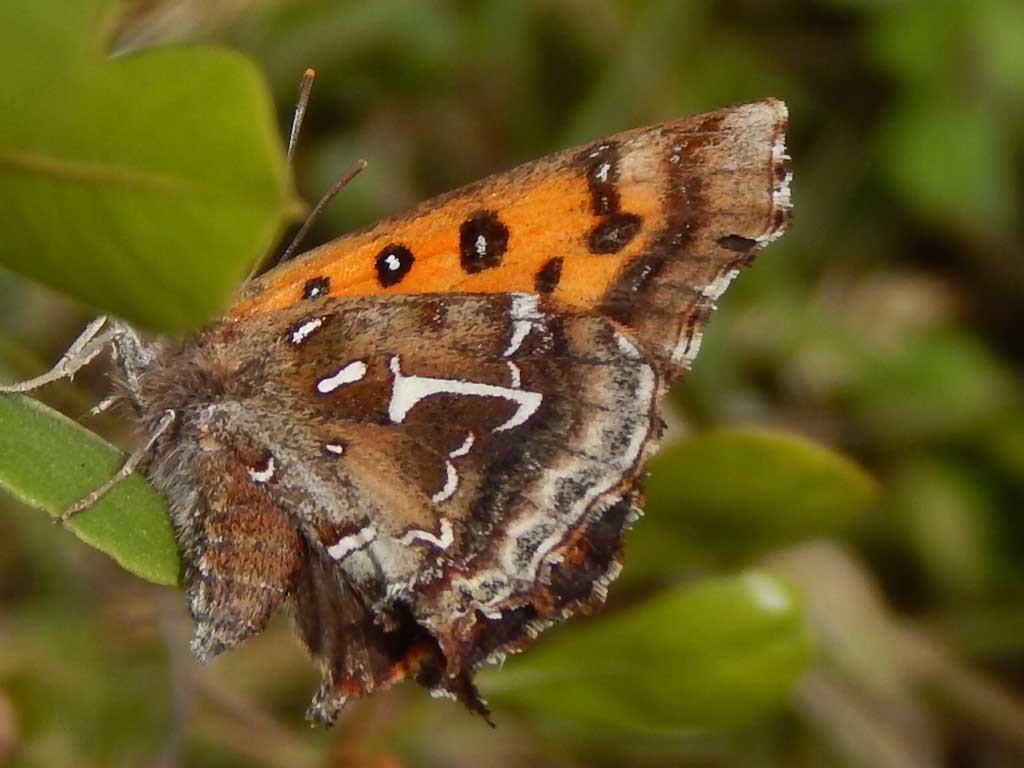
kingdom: Animalia
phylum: Arthropoda
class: Insecta
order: Lepidoptera
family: Lycaenidae
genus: Phasis
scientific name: Phasis thero
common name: Silver arrowhead
